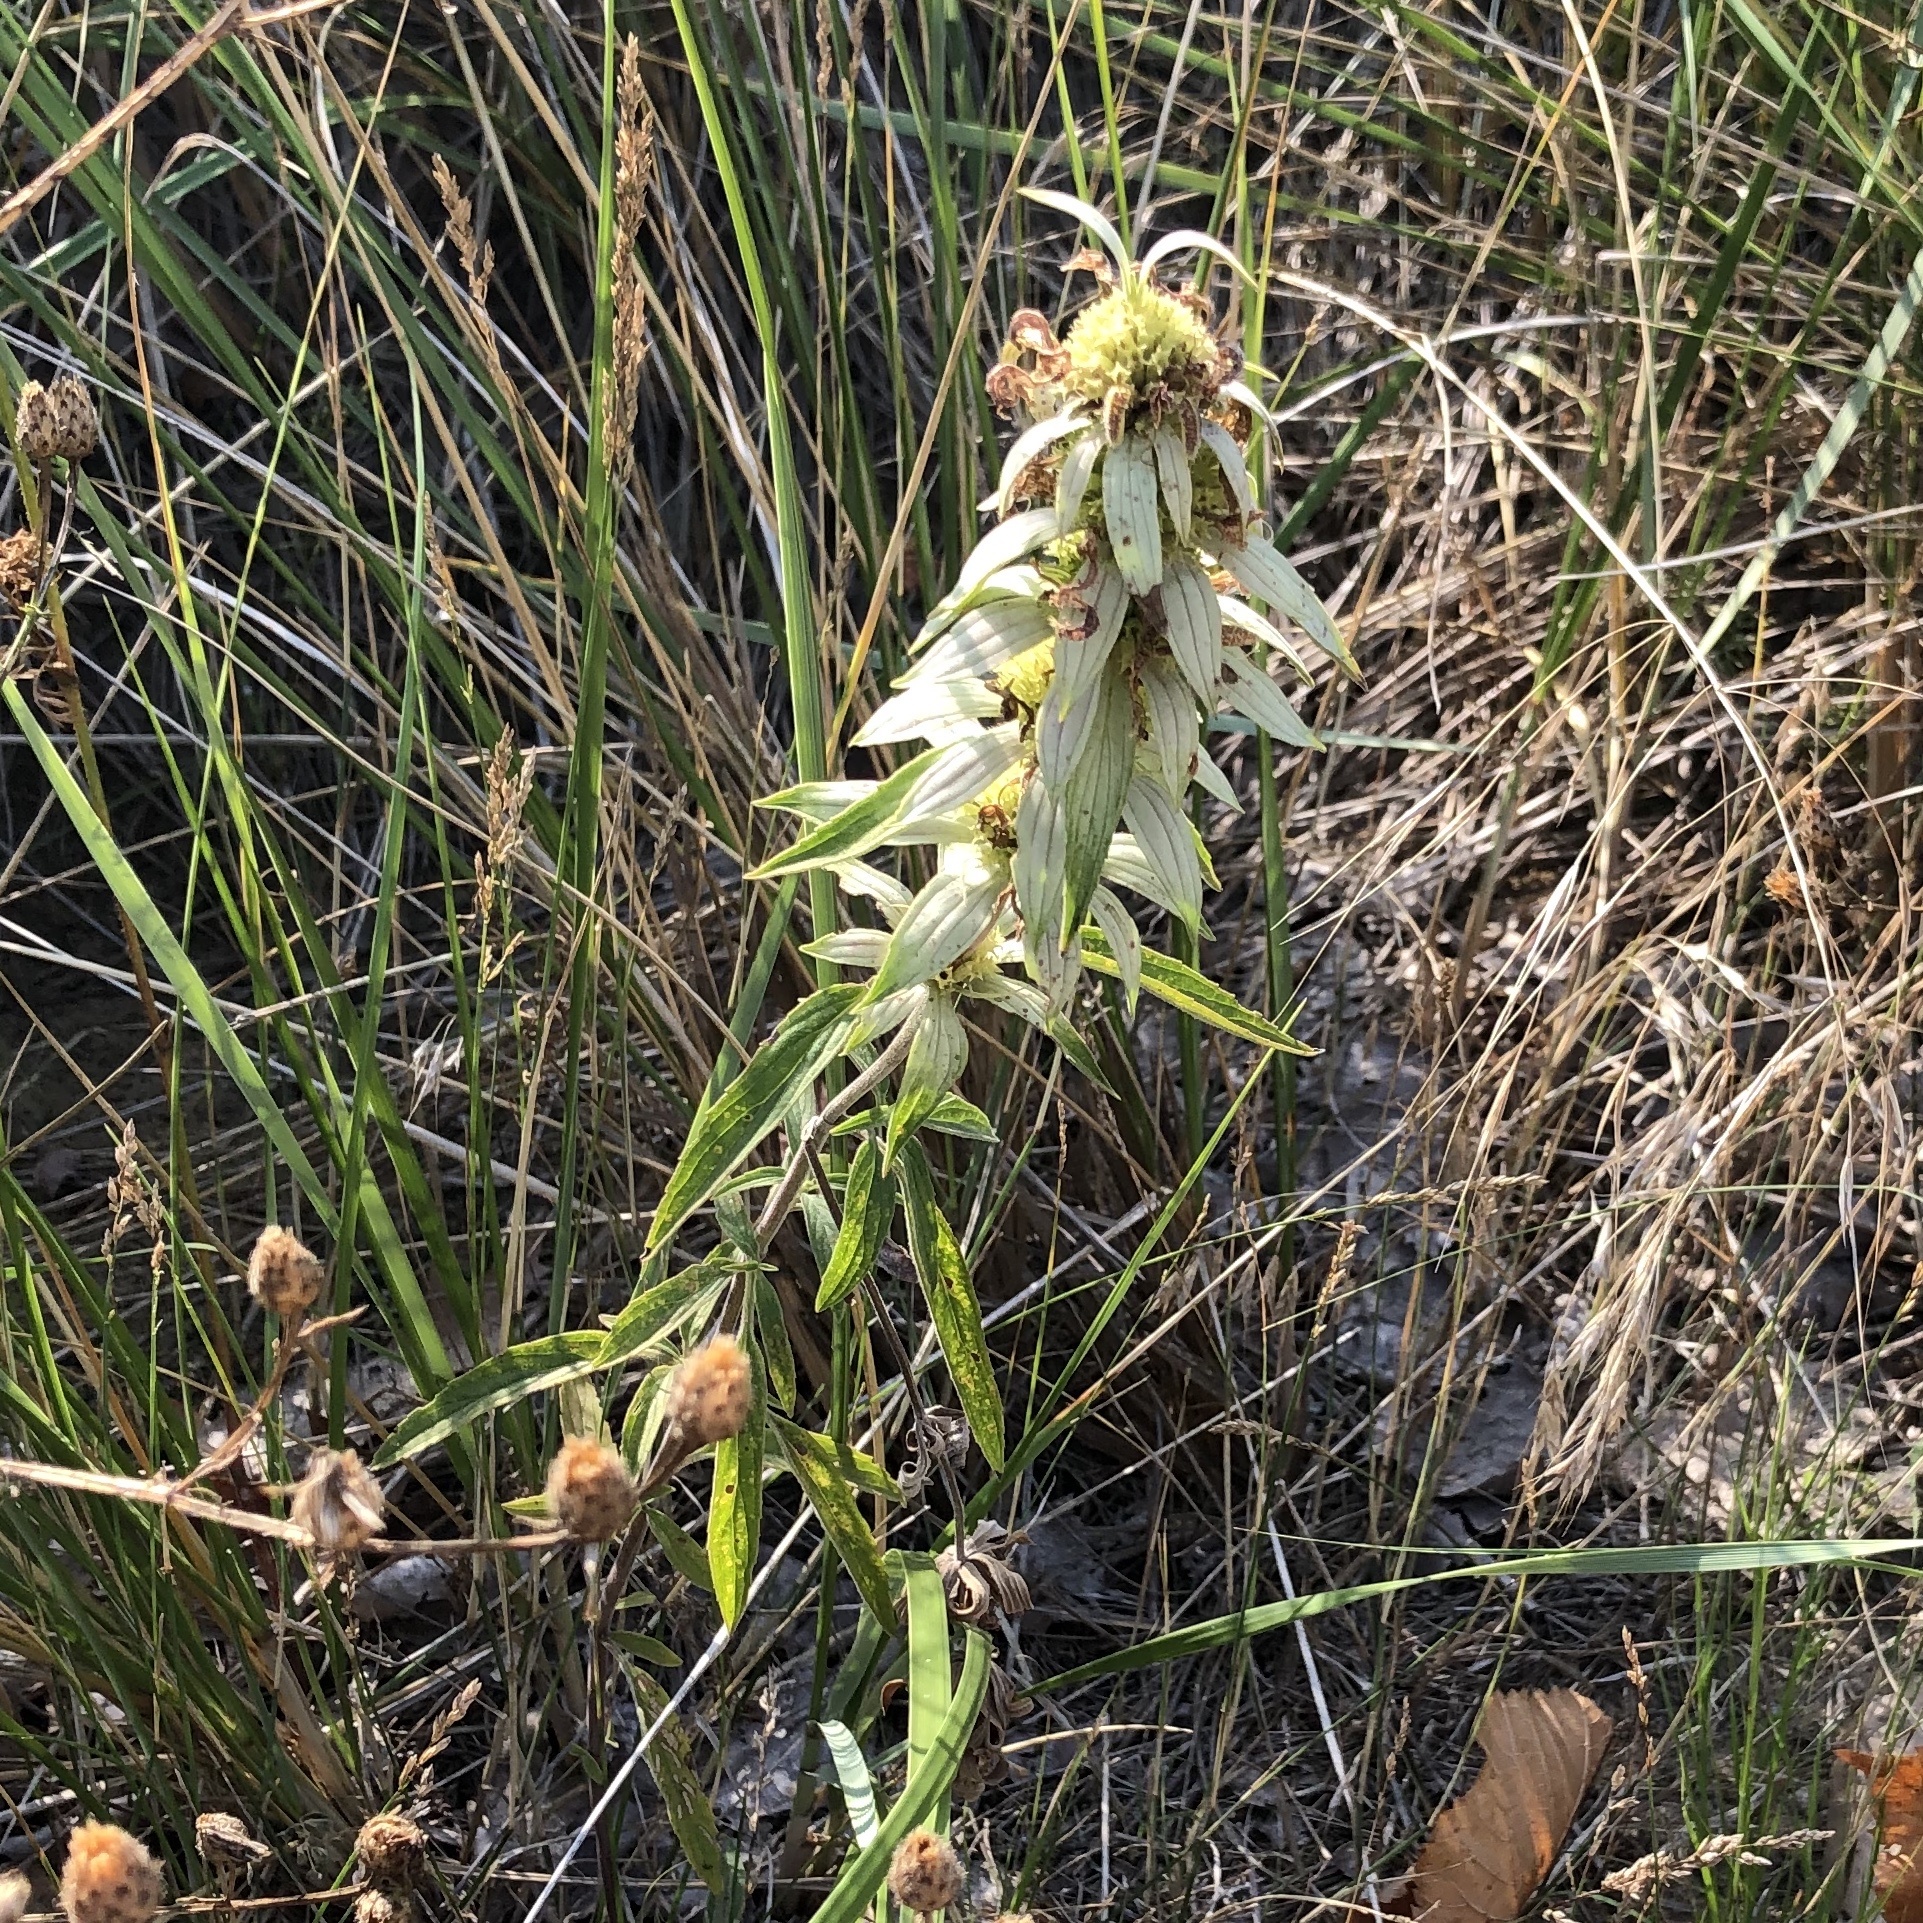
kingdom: Plantae
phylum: Tracheophyta
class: Magnoliopsida
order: Lamiales
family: Lamiaceae
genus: Monarda
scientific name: Monarda punctata
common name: Dotted monarda
